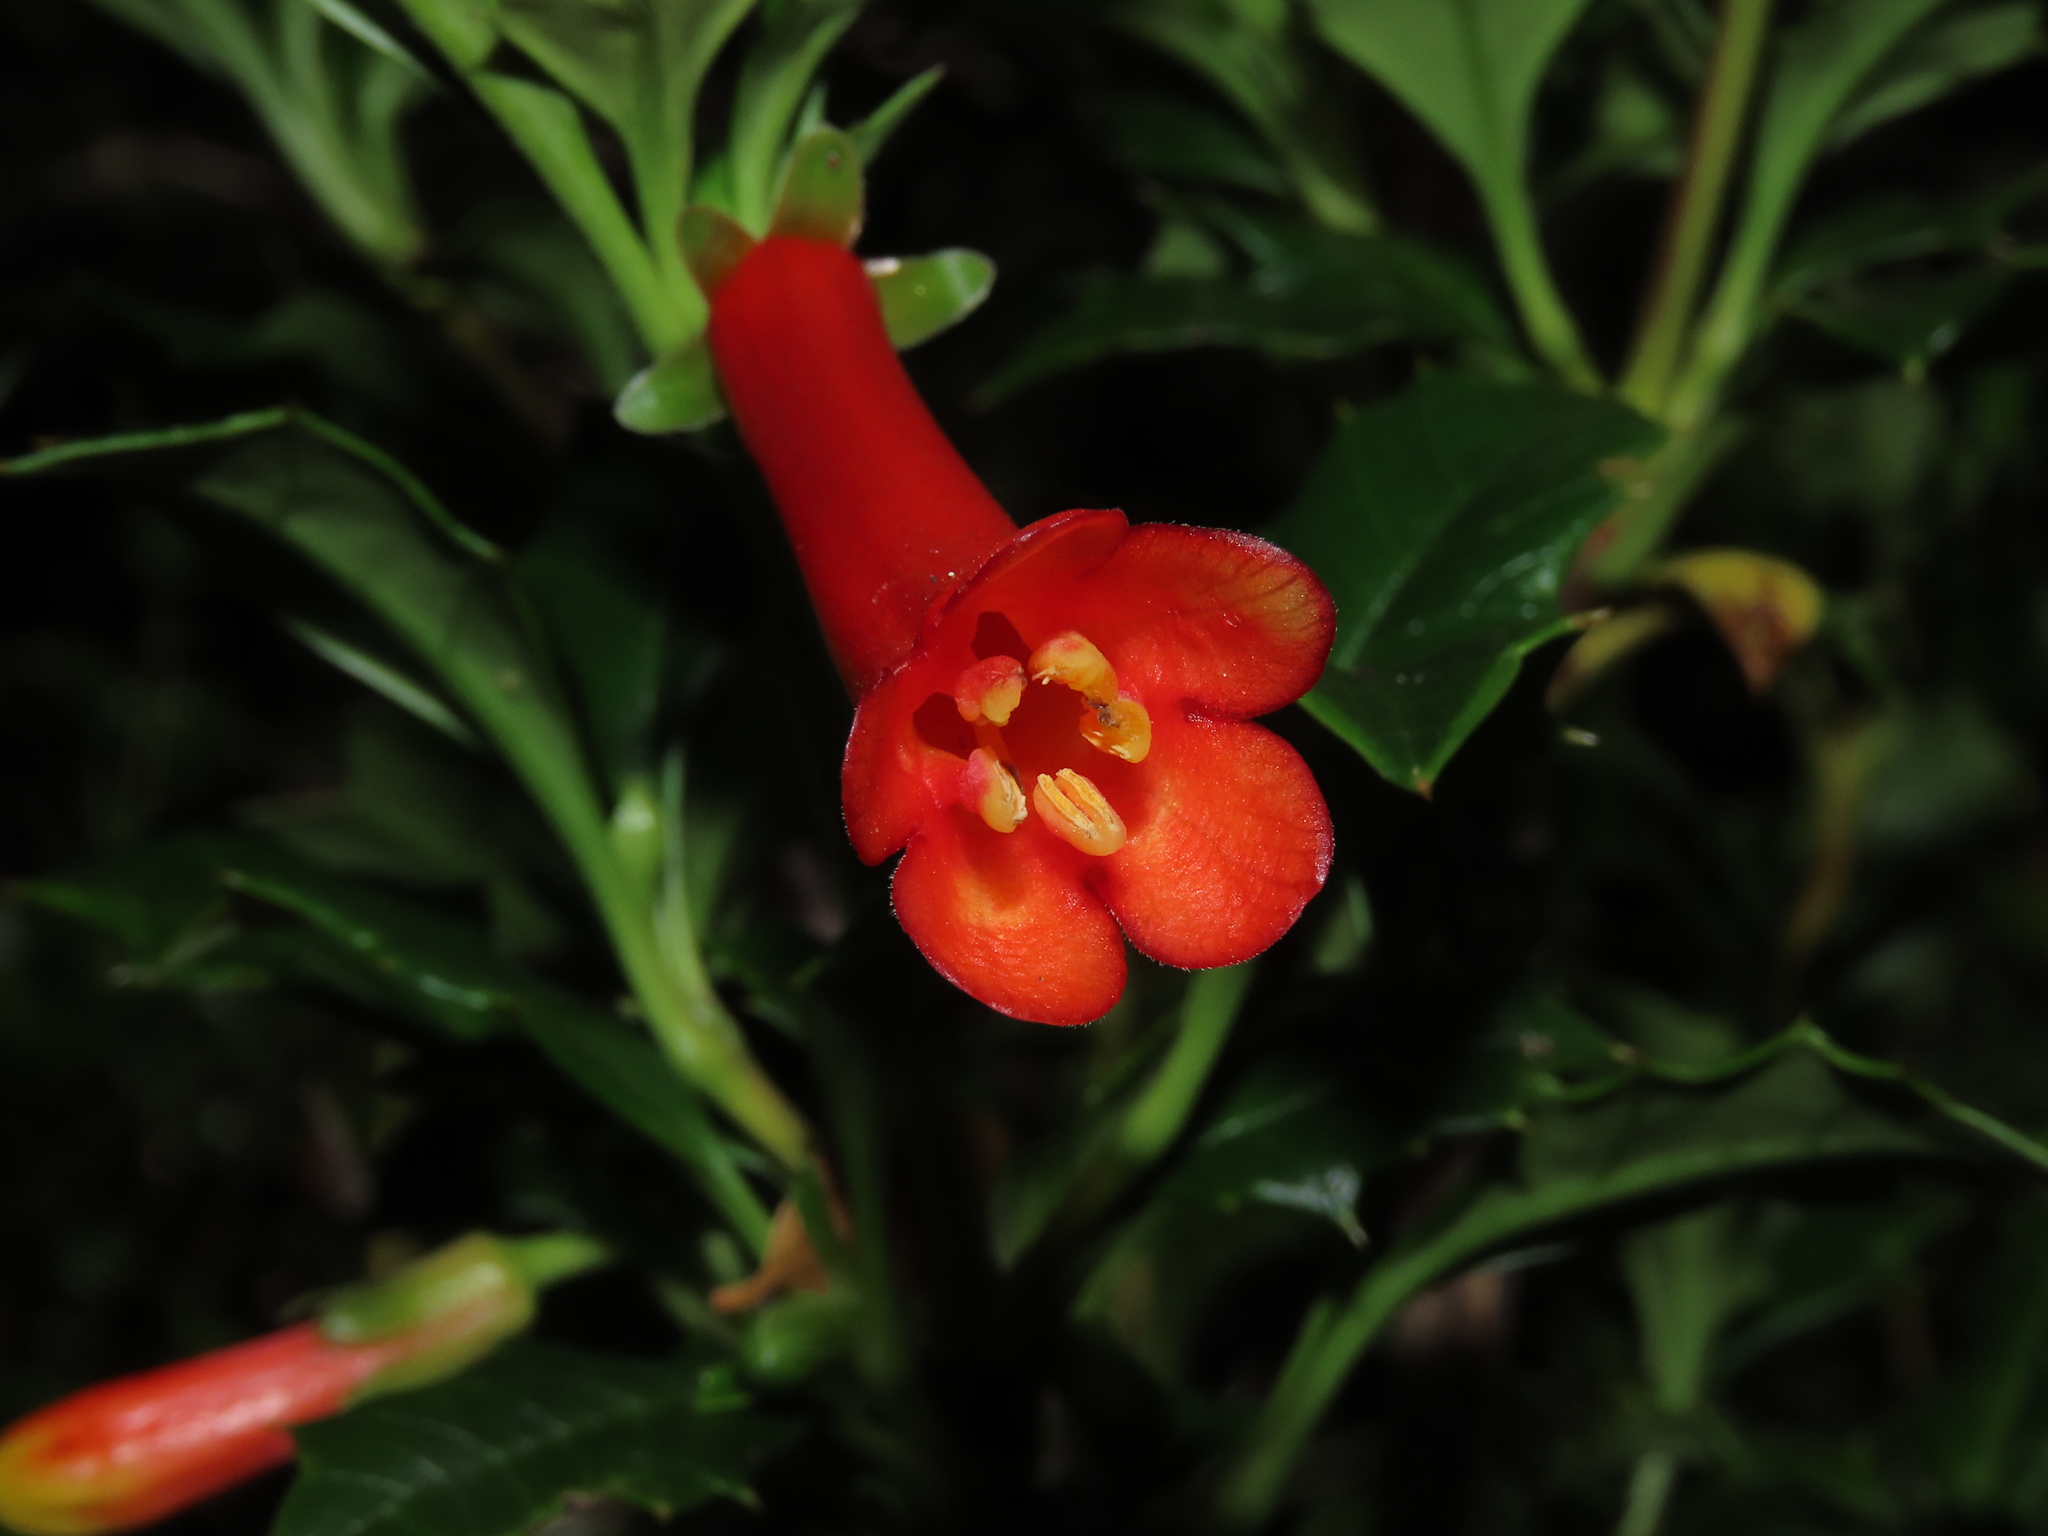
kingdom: Plantae
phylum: Tracheophyta
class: Magnoliopsida
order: Bruniales
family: Columelliaceae
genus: Desfontainia
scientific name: Desfontainia fulgens
